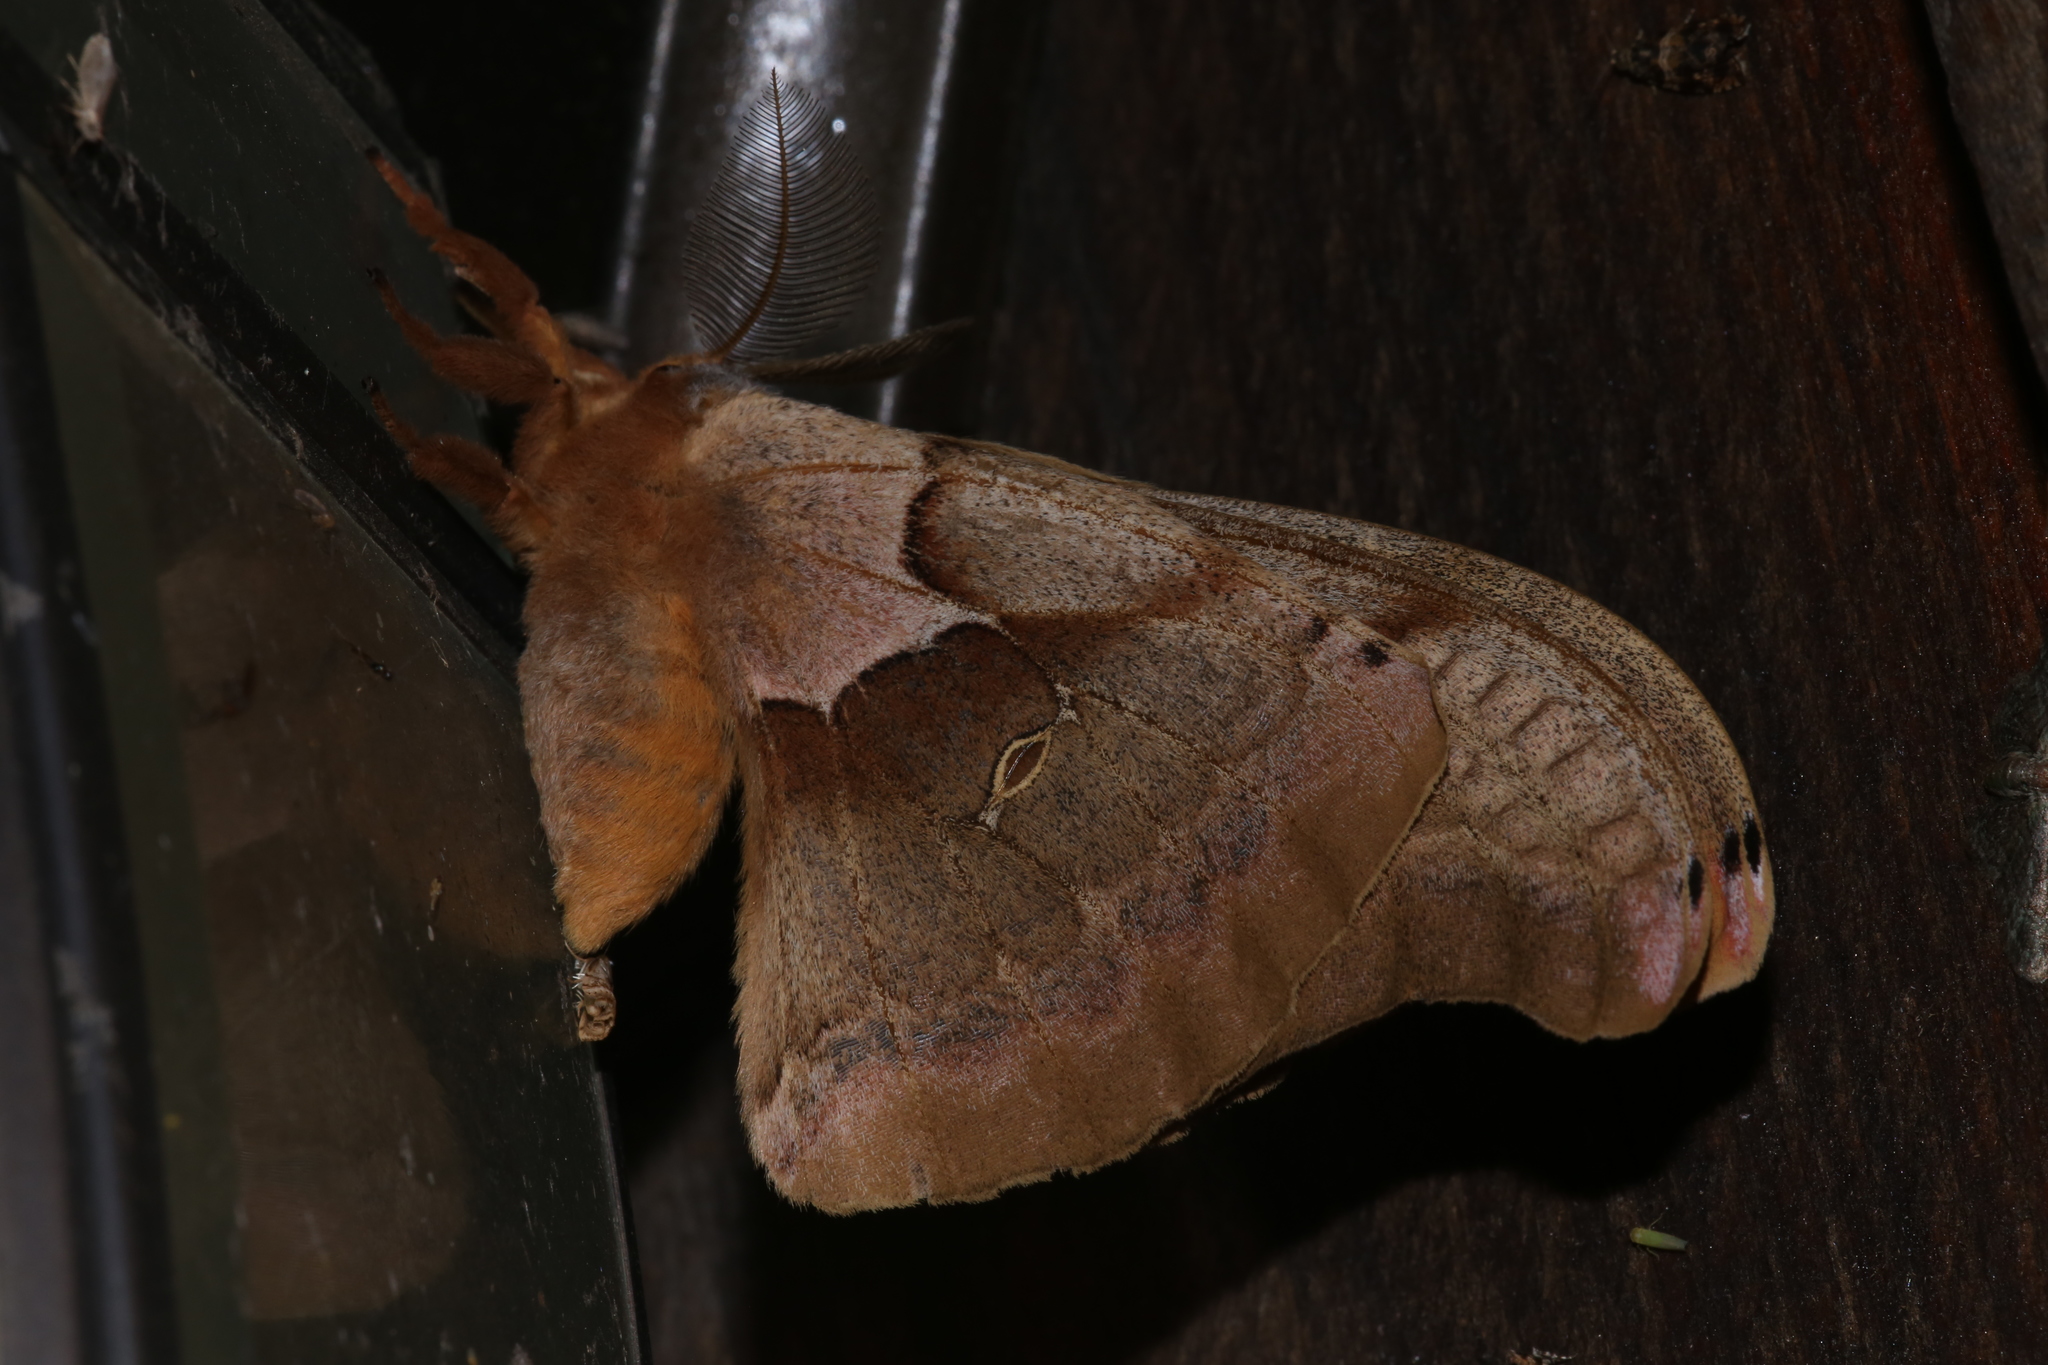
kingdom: Animalia
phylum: Arthropoda
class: Insecta
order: Lepidoptera
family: Saturniidae
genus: Antheraea
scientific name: Antheraea polyphemus
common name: Polyphemus moth
